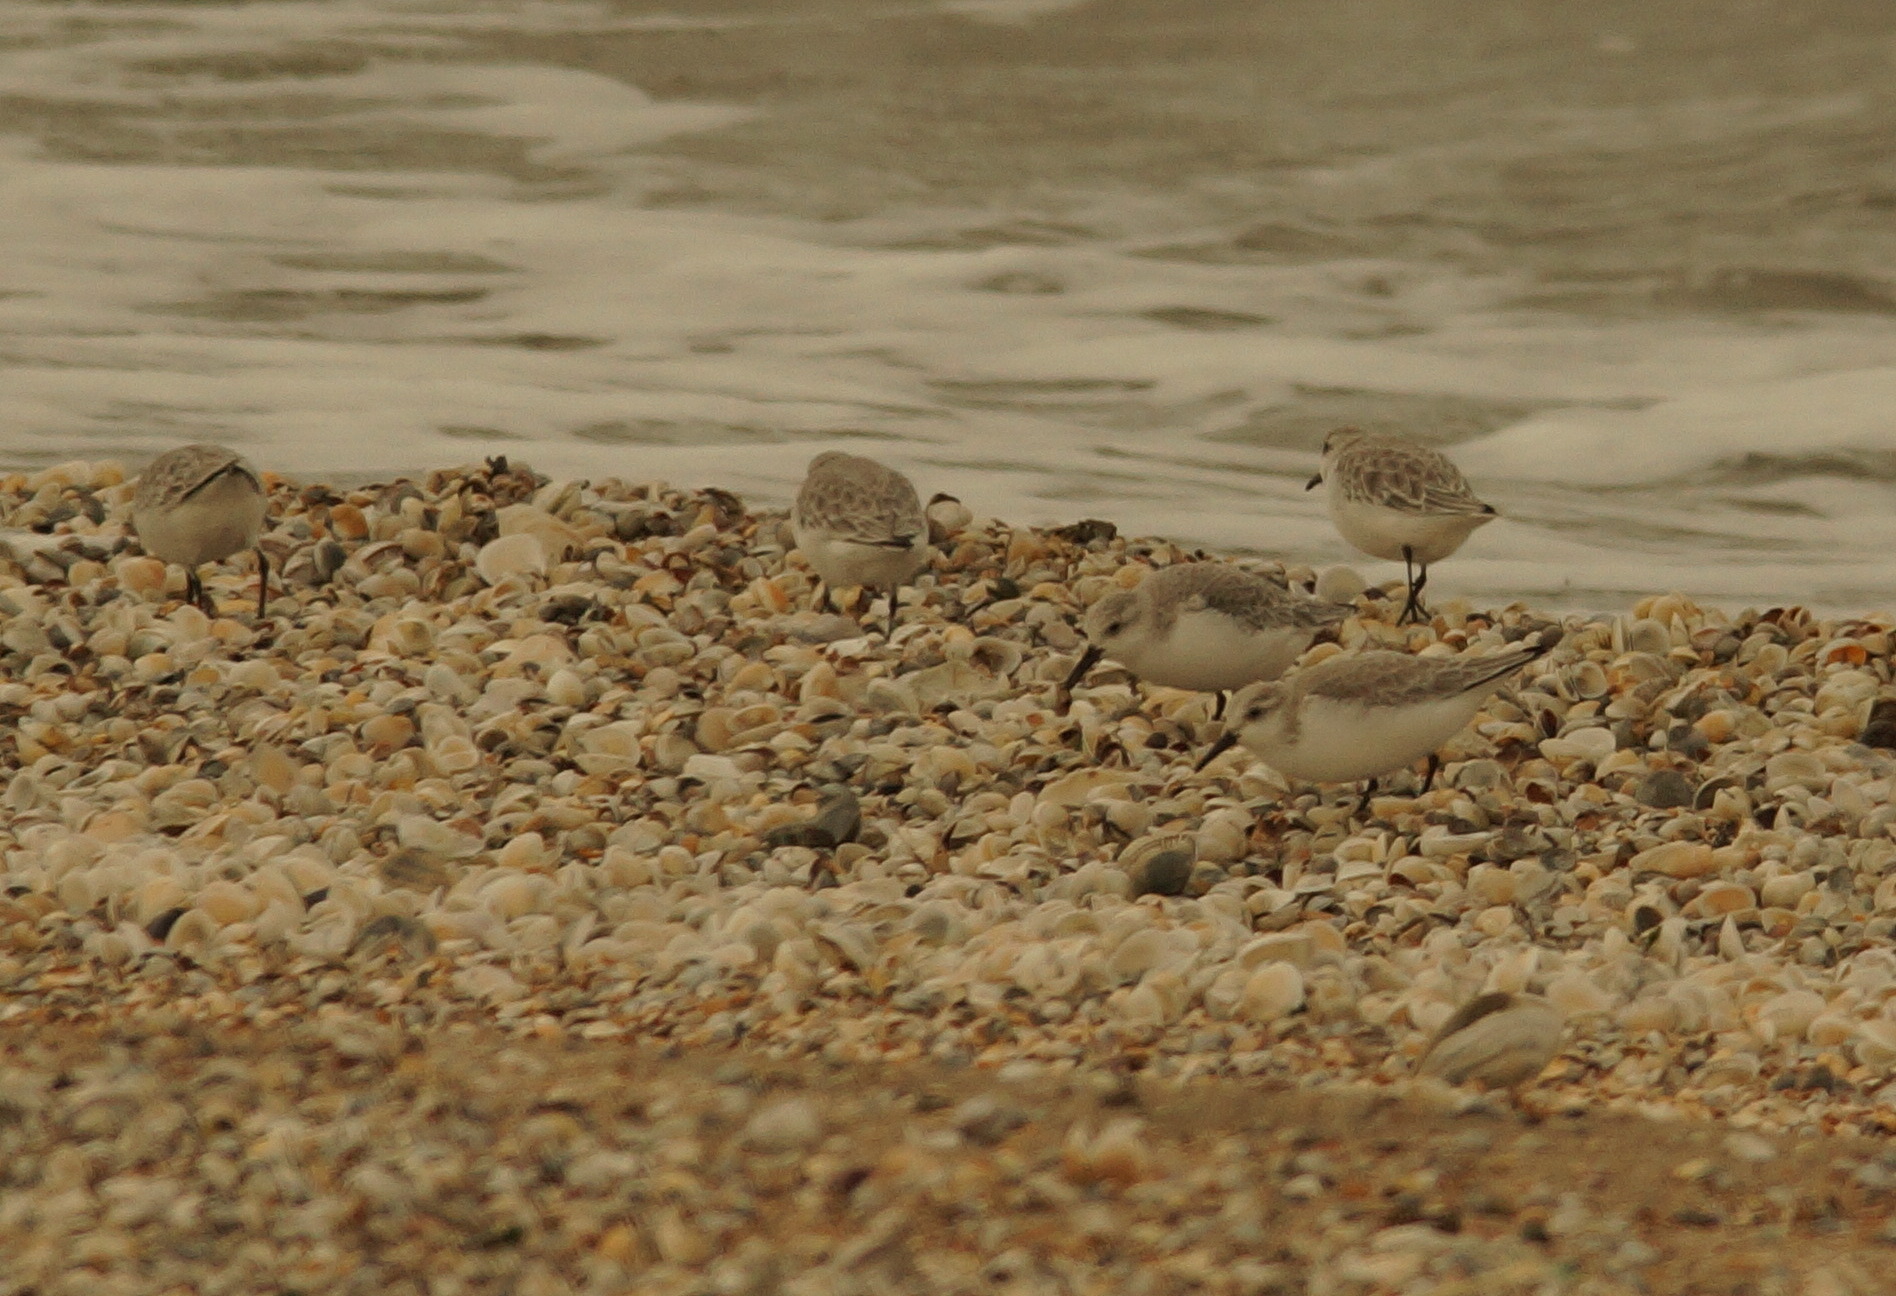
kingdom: Animalia
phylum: Chordata
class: Aves
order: Charadriiformes
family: Scolopacidae
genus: Calidris
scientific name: Calidris alba
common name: Sanderling
